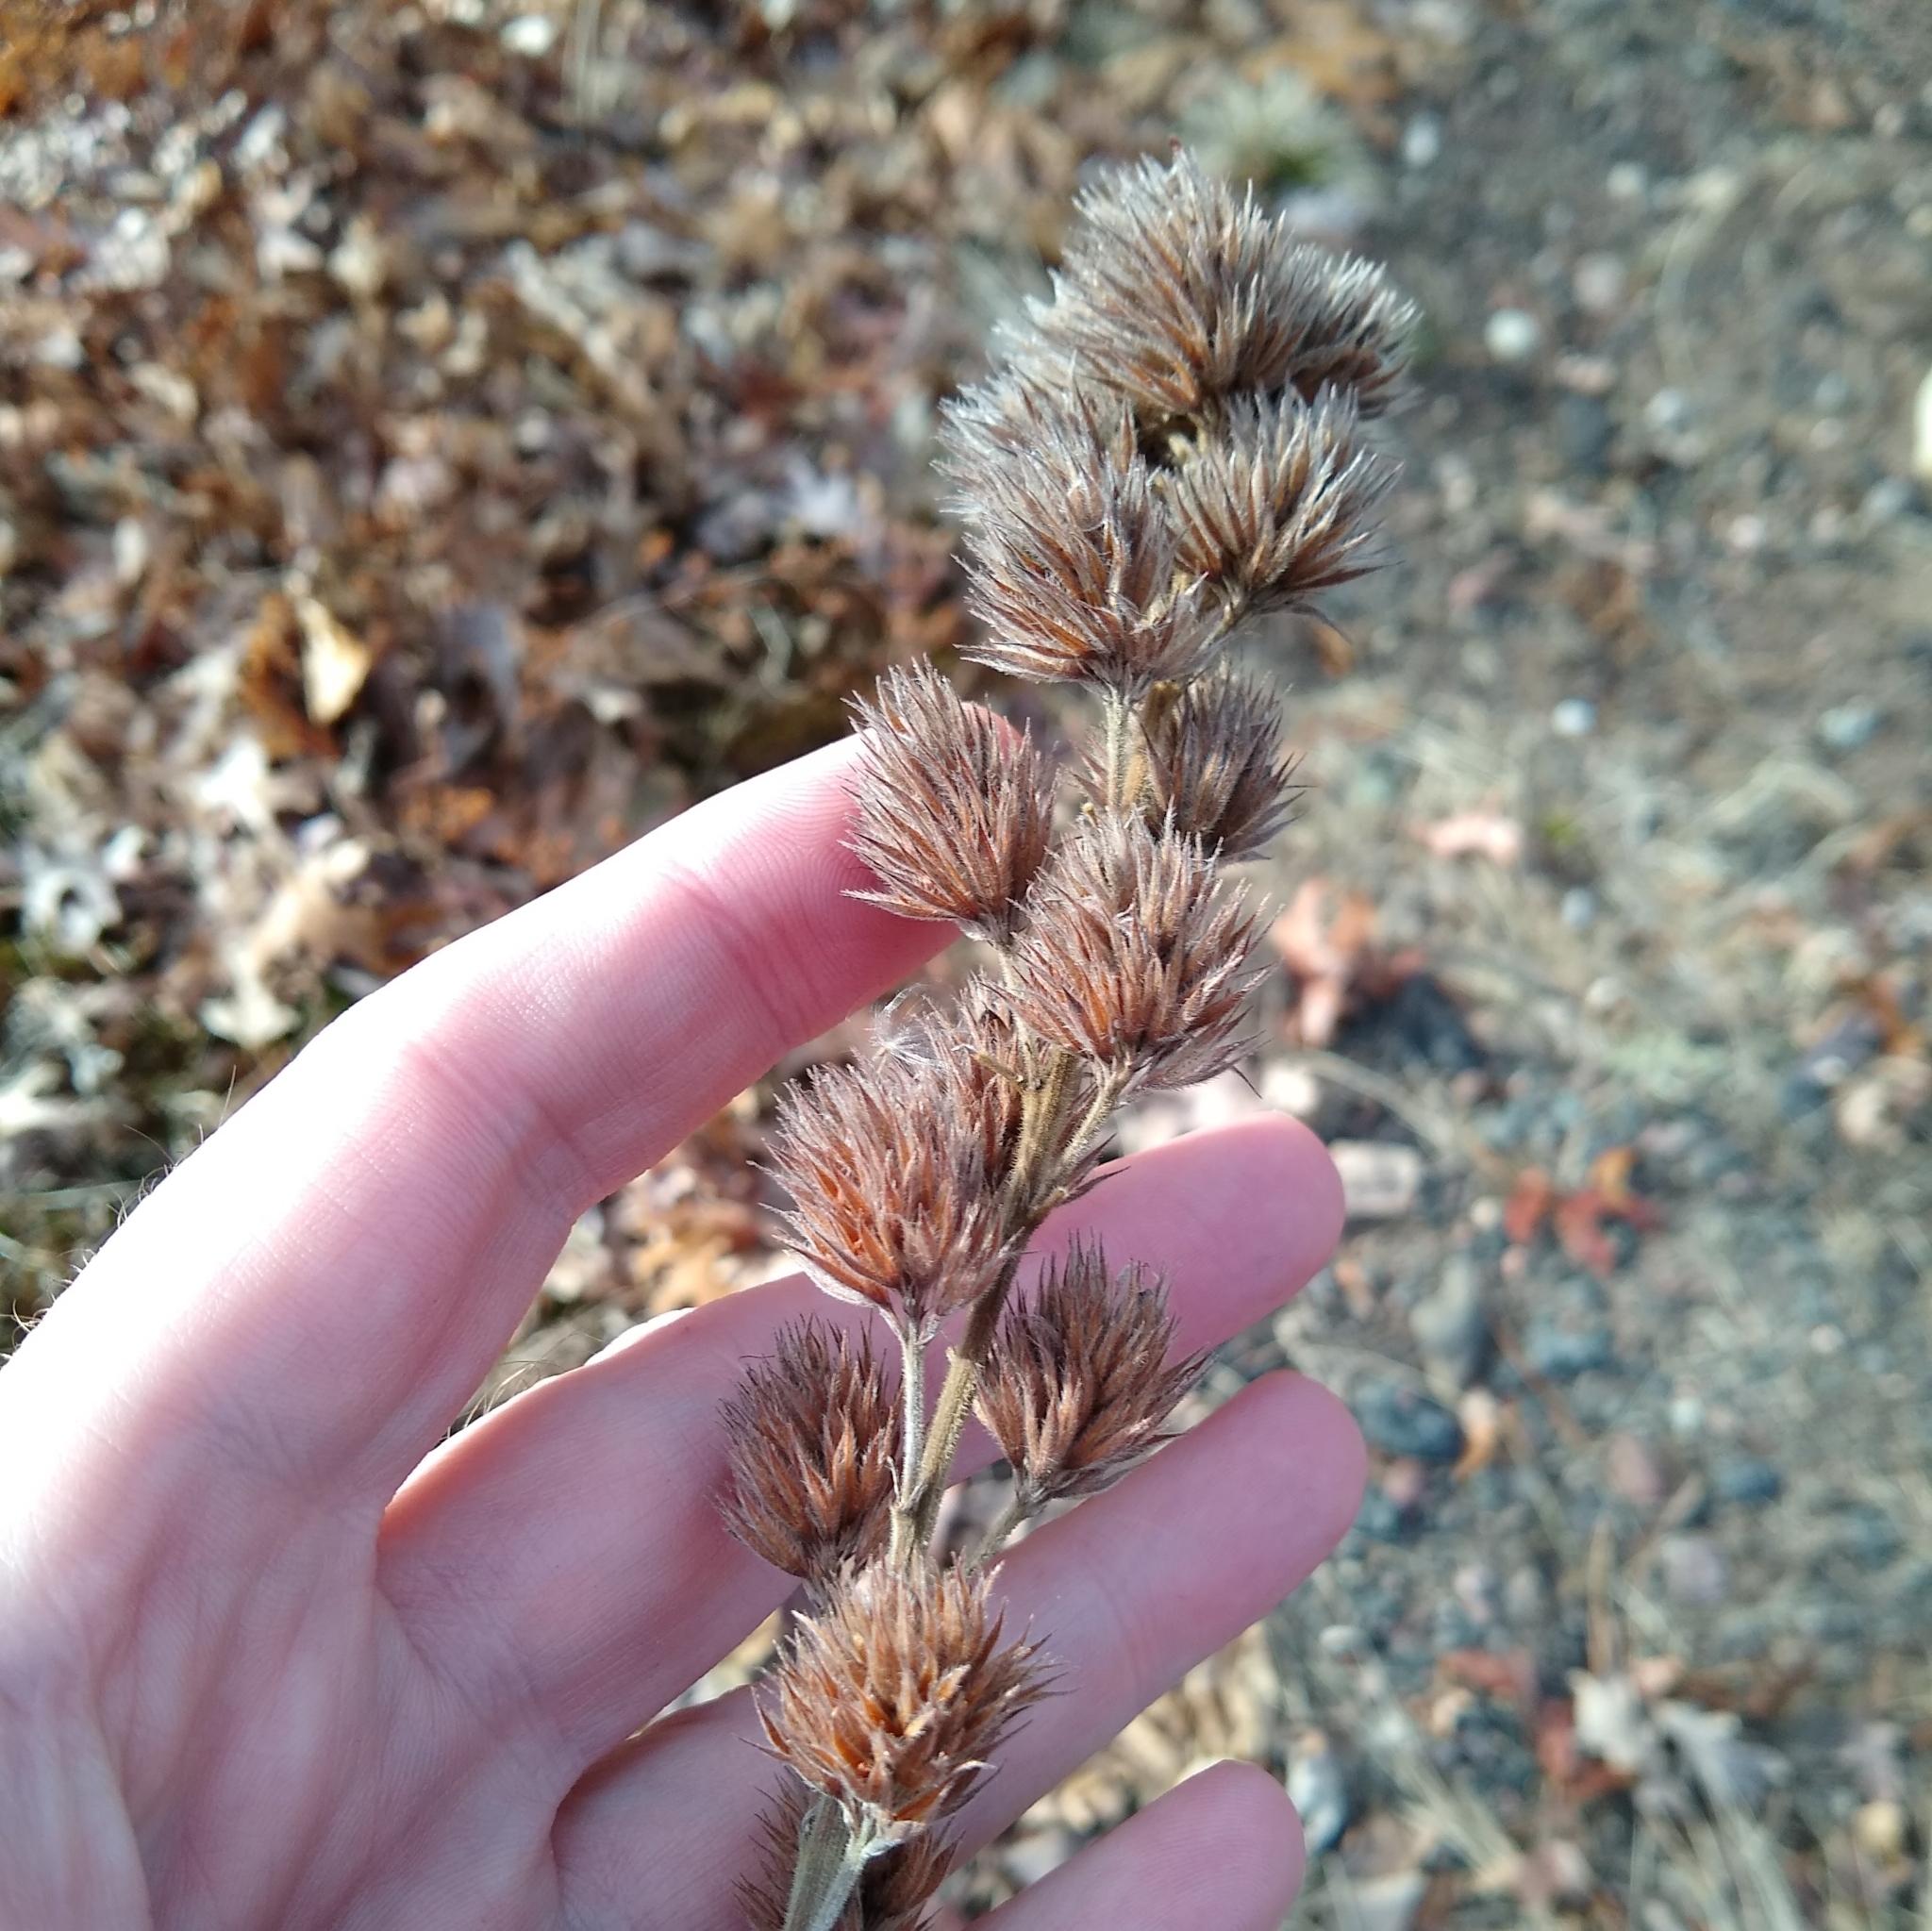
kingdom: Plantae
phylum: Tracheophyta
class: Magnoliopsida
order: Fabales
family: Fabaceae
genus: Lespedeza
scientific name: Lespedeza capitata
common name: Dusty clover
